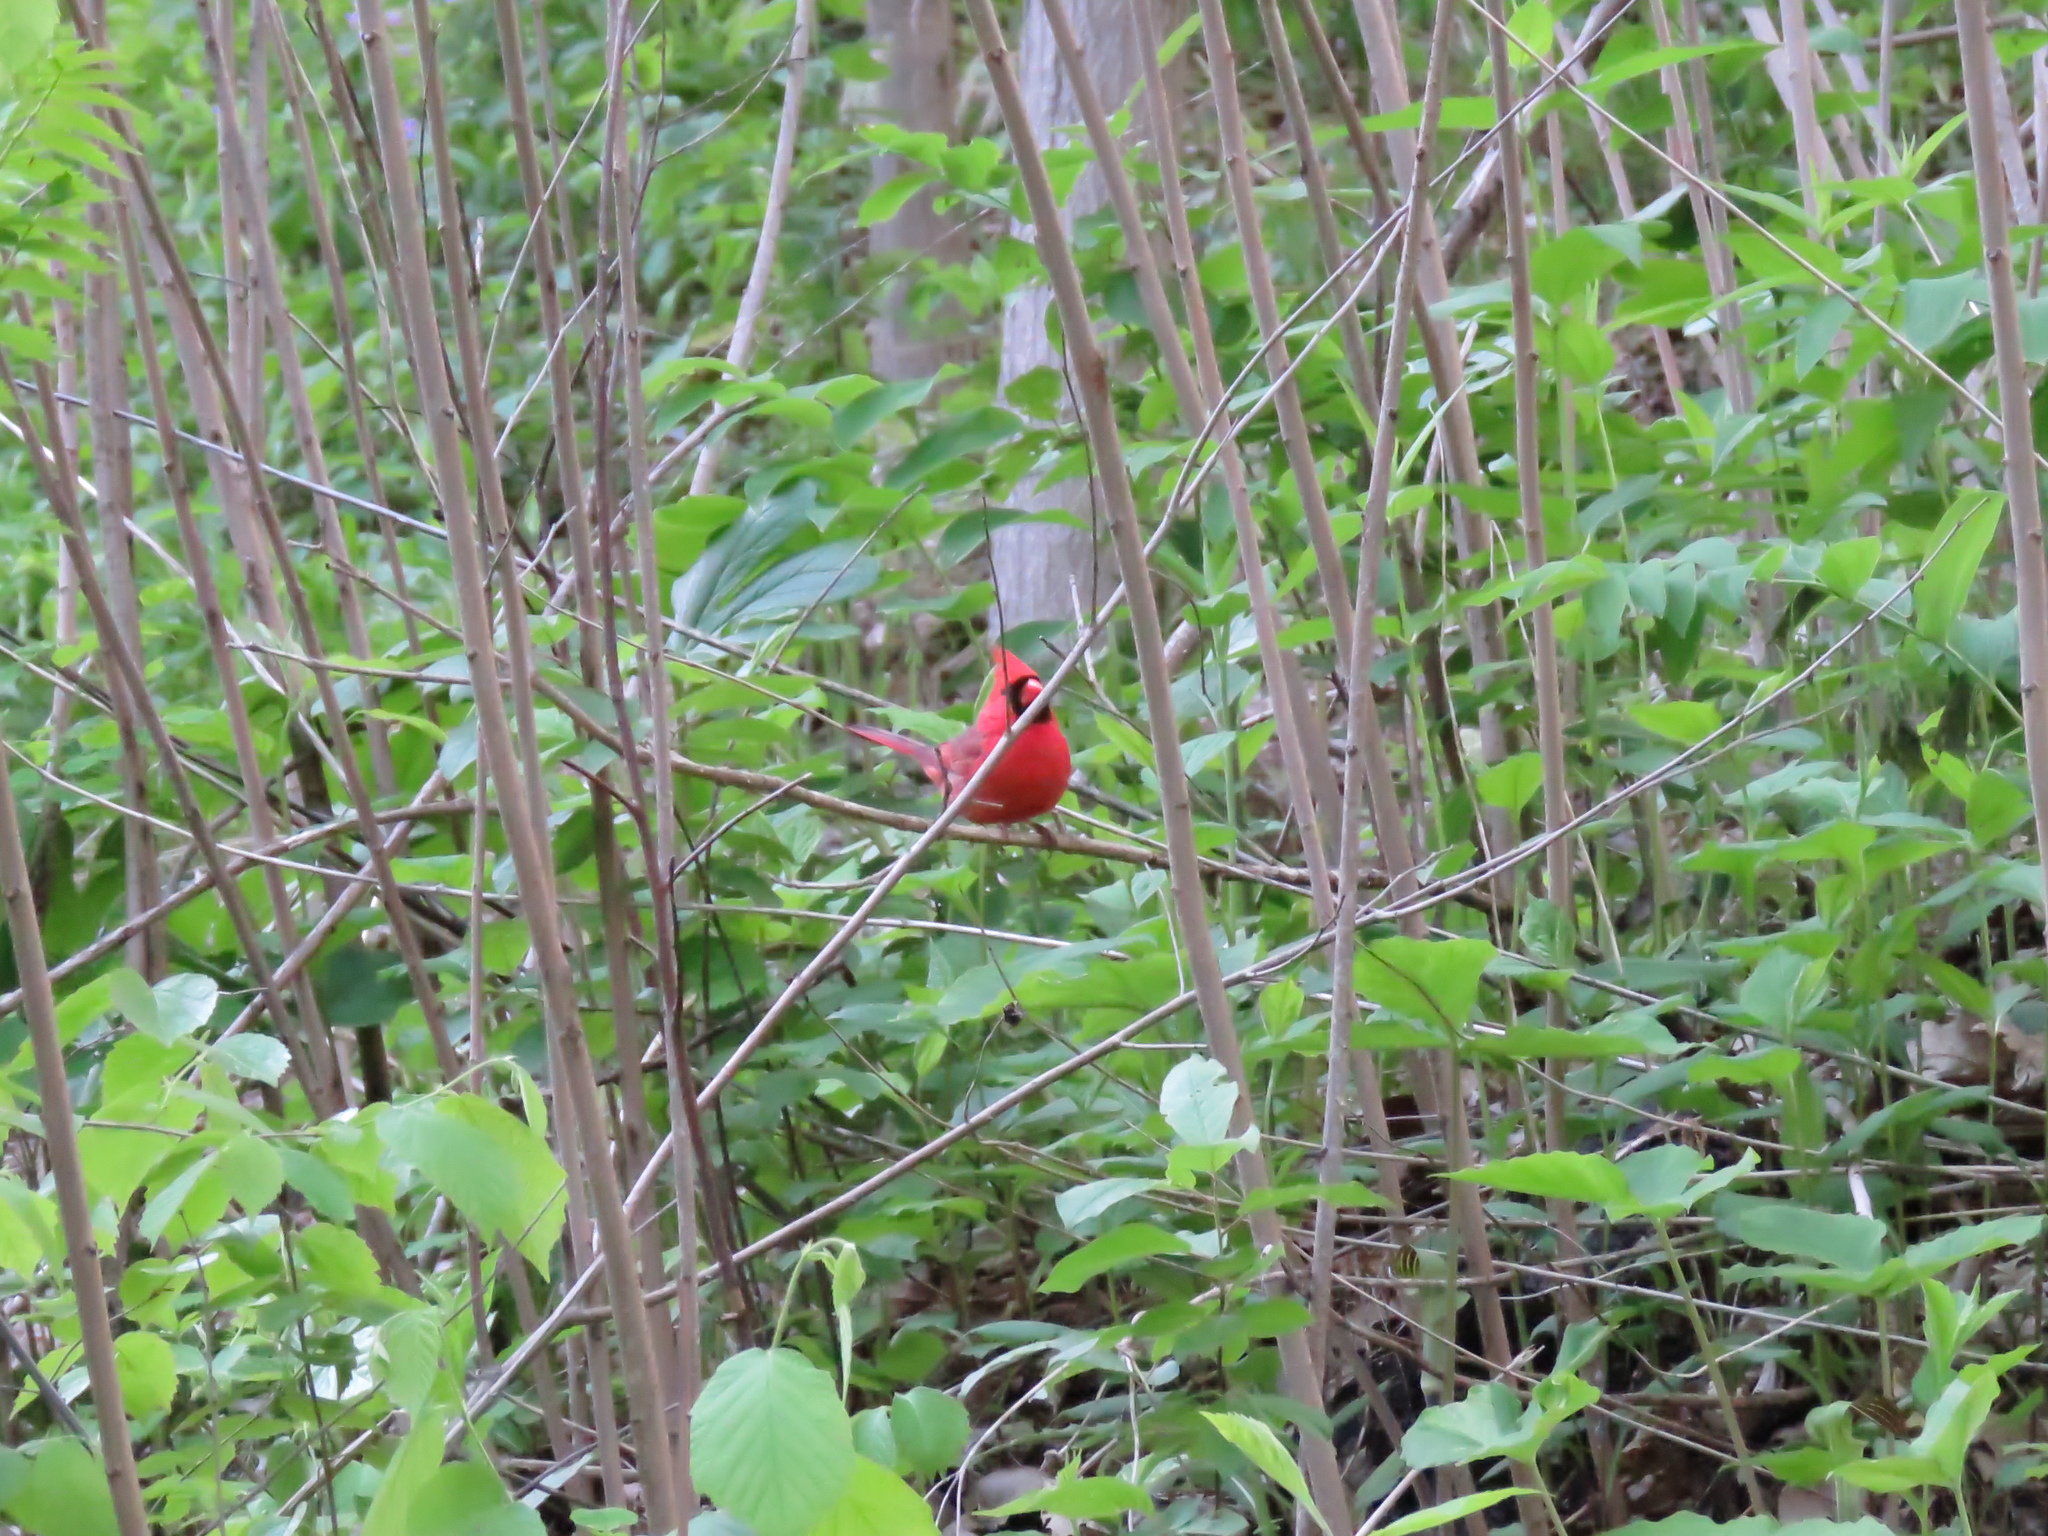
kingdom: Animalia
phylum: Chordata
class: Aves
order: Passeriformes
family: Cardinalidae
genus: Cardinalis
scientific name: Cardinalis cardinalis
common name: Northern cardinal
